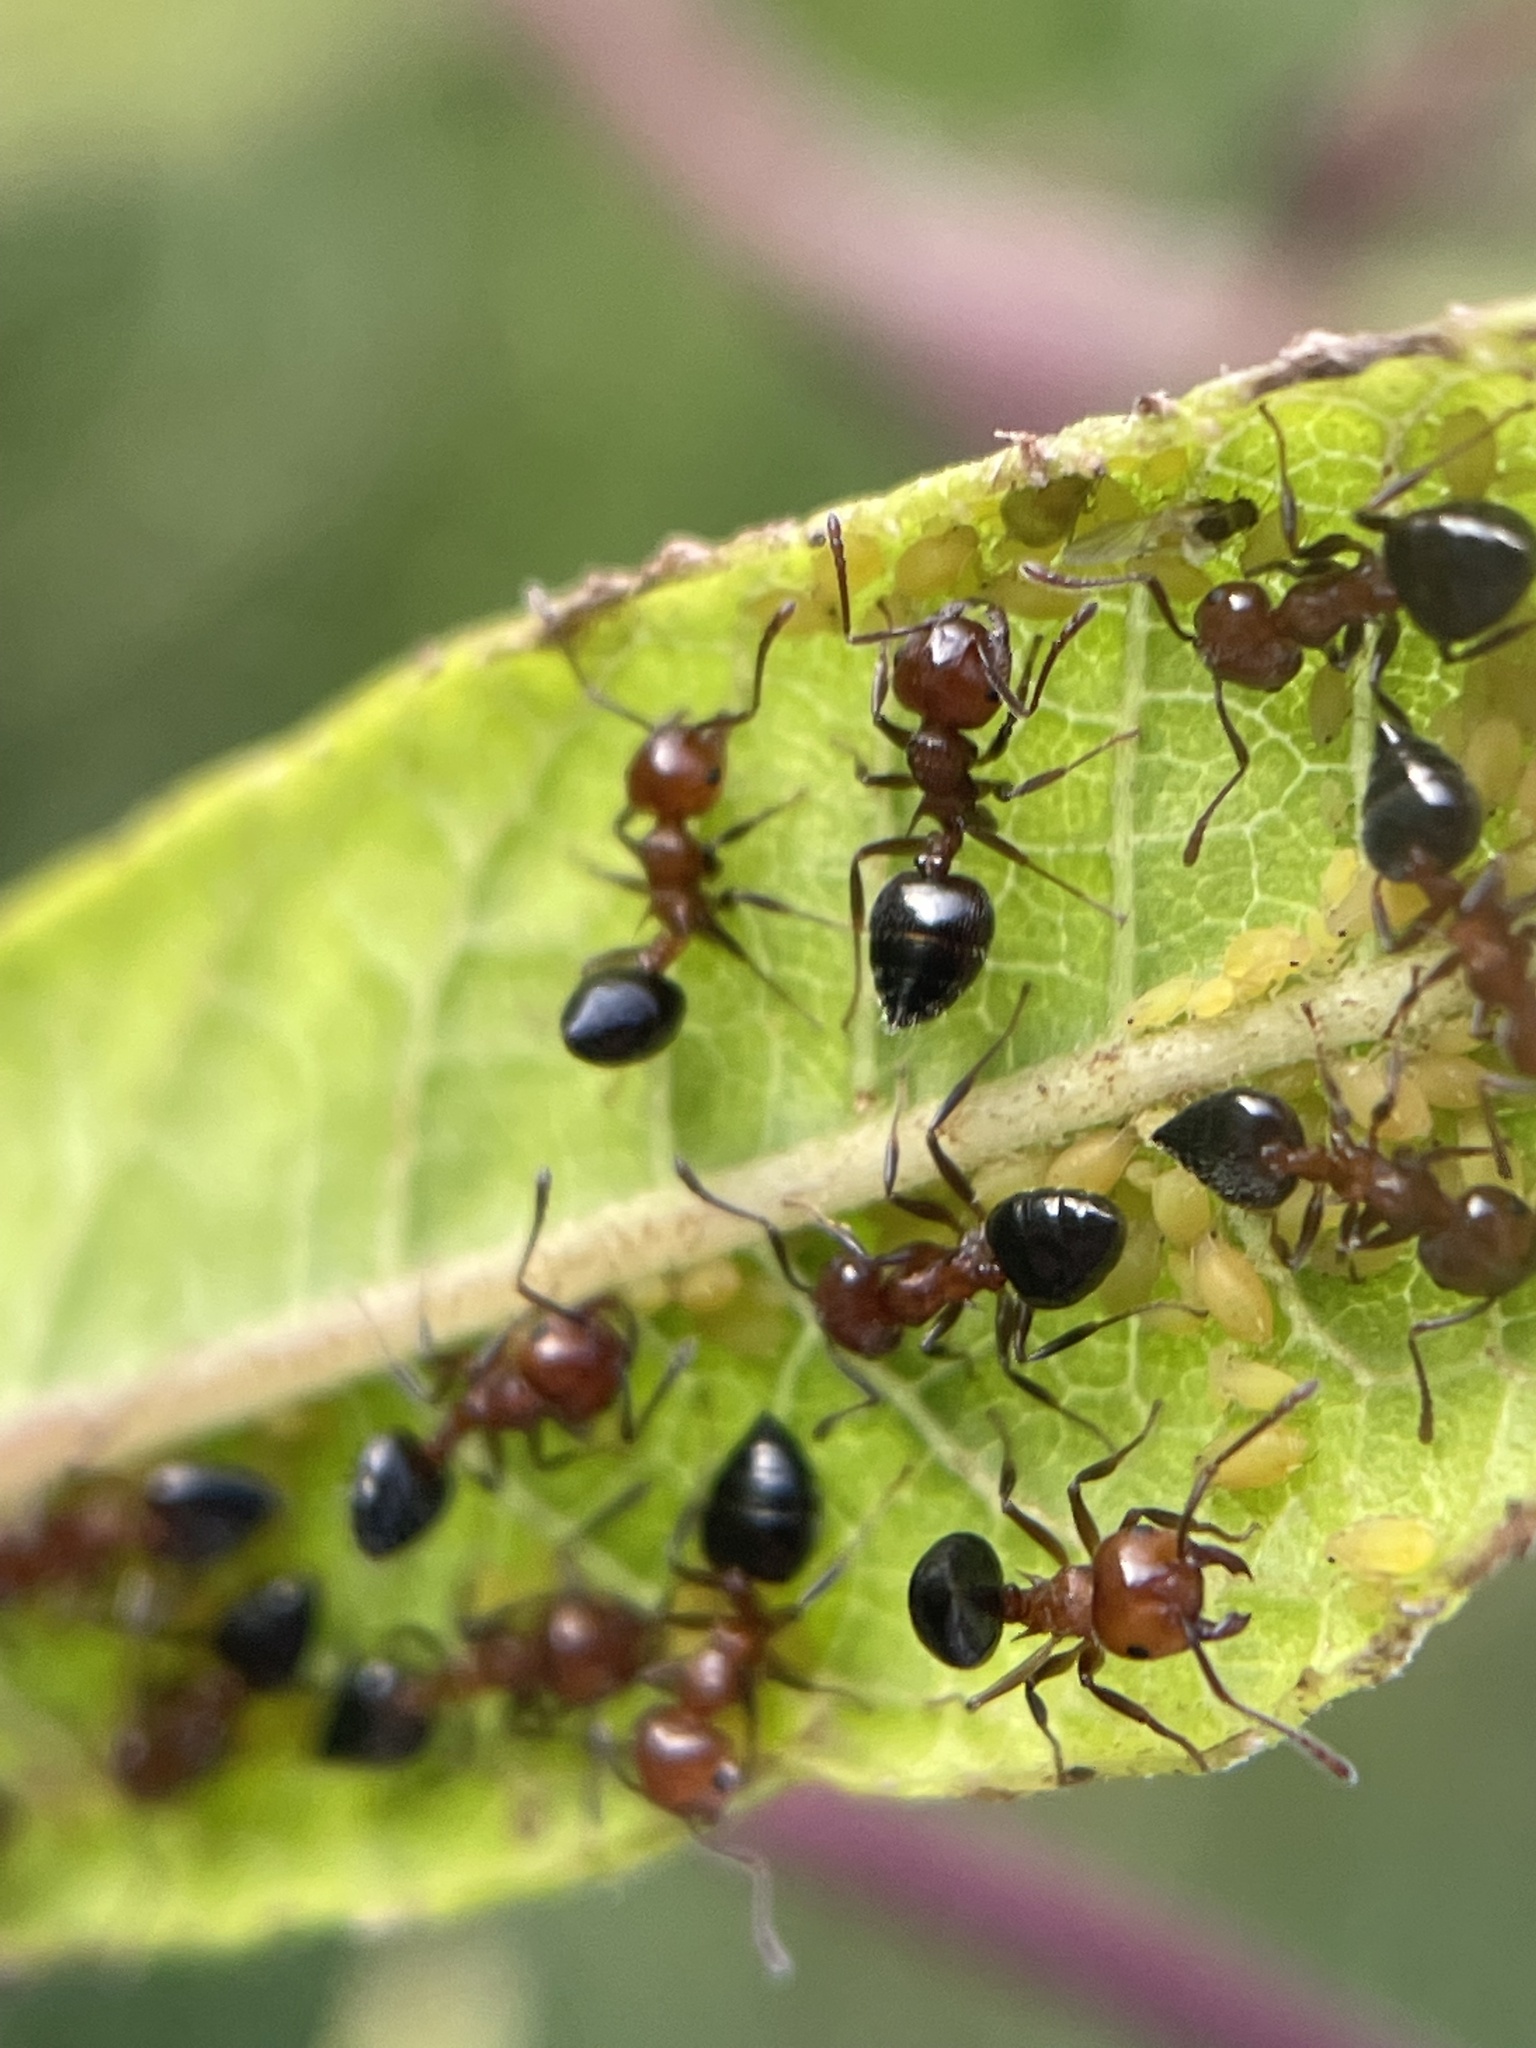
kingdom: Animalia
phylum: Arthropoda
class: Insecta
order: Hymenoptera
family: Formicidae
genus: Crematogaster
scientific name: Crematogaster pilosa
